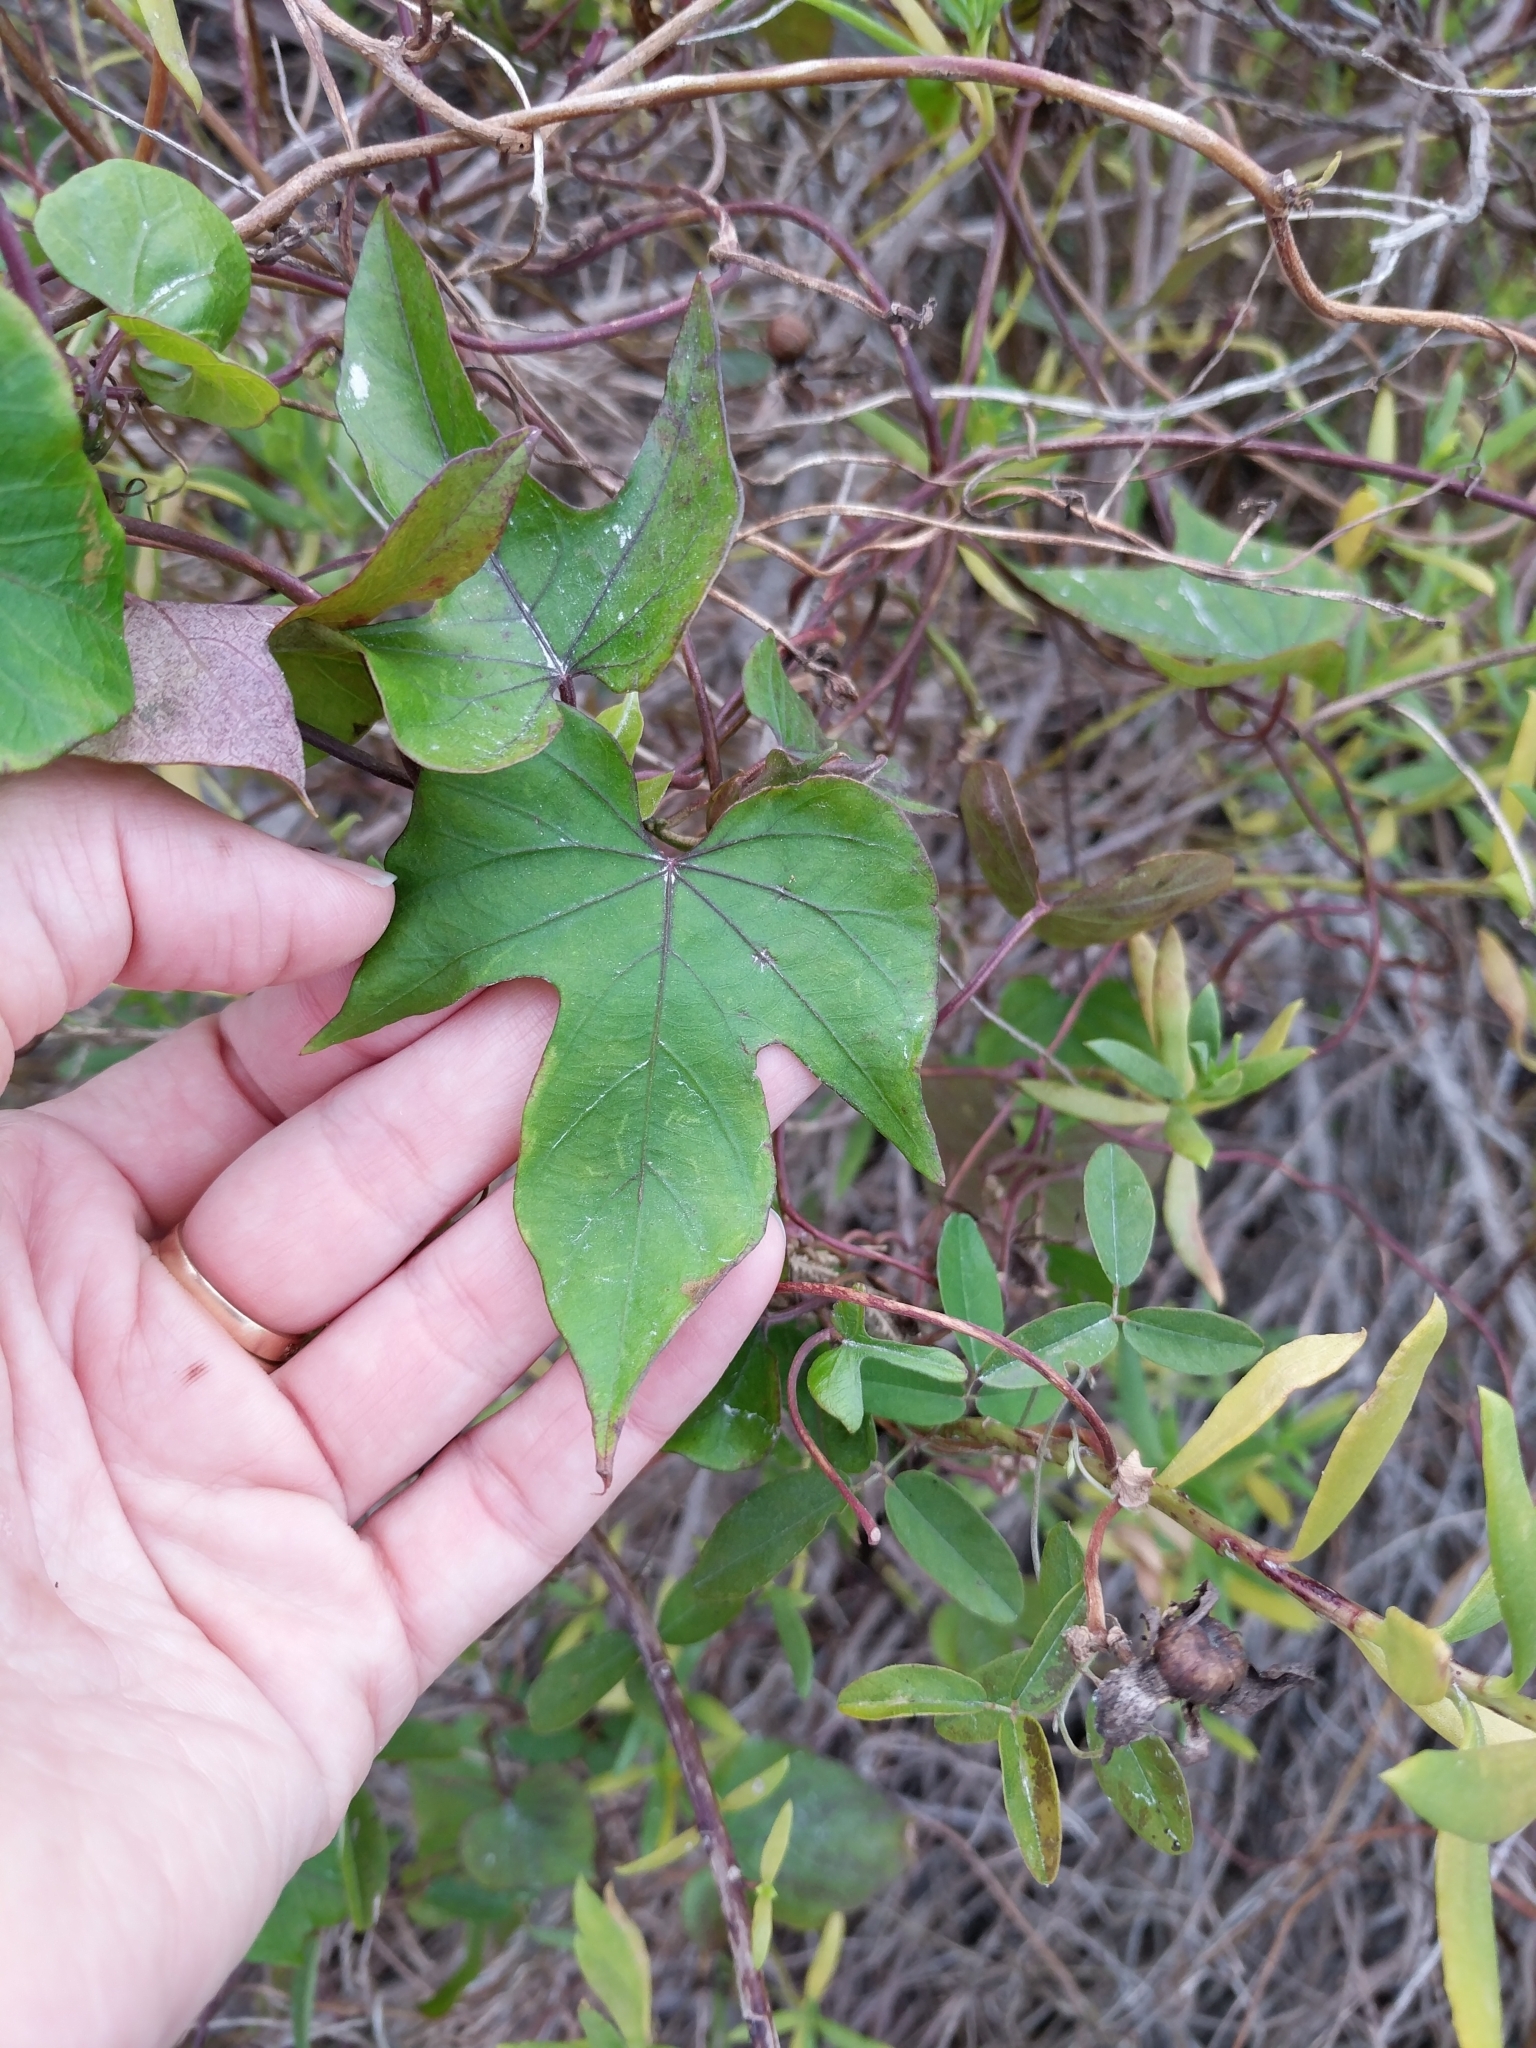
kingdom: Plantae
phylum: Tracheophyta
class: Magnoliopsida
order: Solanales
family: Convolvulaceae
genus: Ipomoea
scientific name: Ipomoea indica
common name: Blue dawnflower
